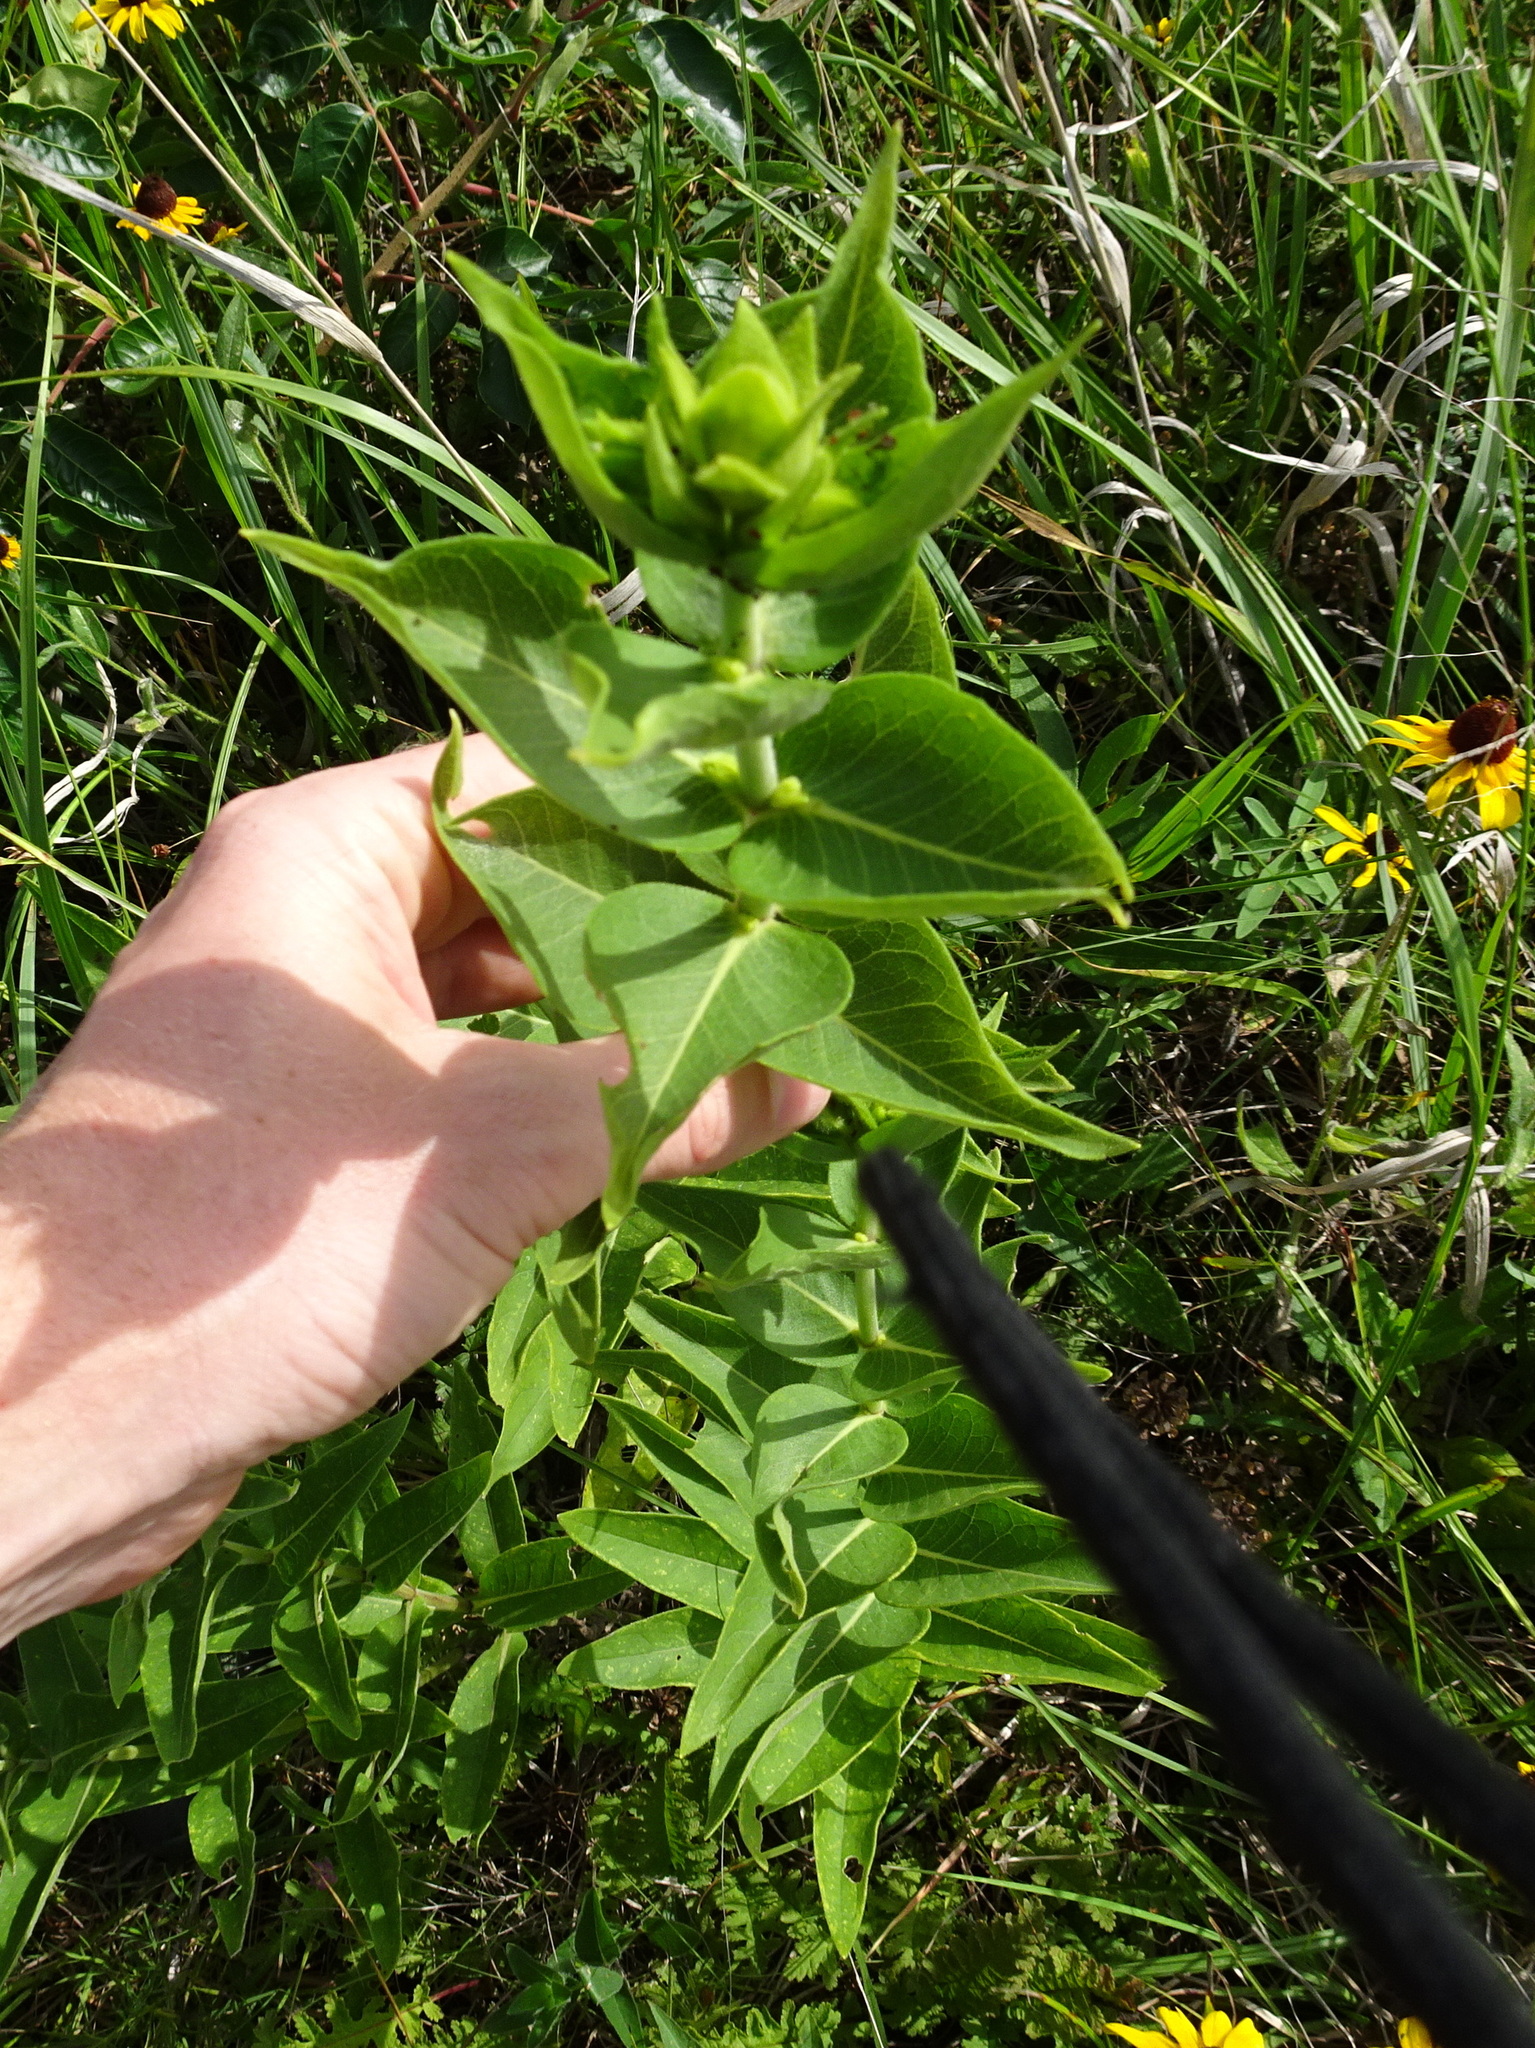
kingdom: Plantae
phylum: Tracheophyta
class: Magnoliopsida
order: Asterales
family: Asteraceae
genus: Silphium
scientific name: Silphium integrifolium
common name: Whole-leaf rosinweed
